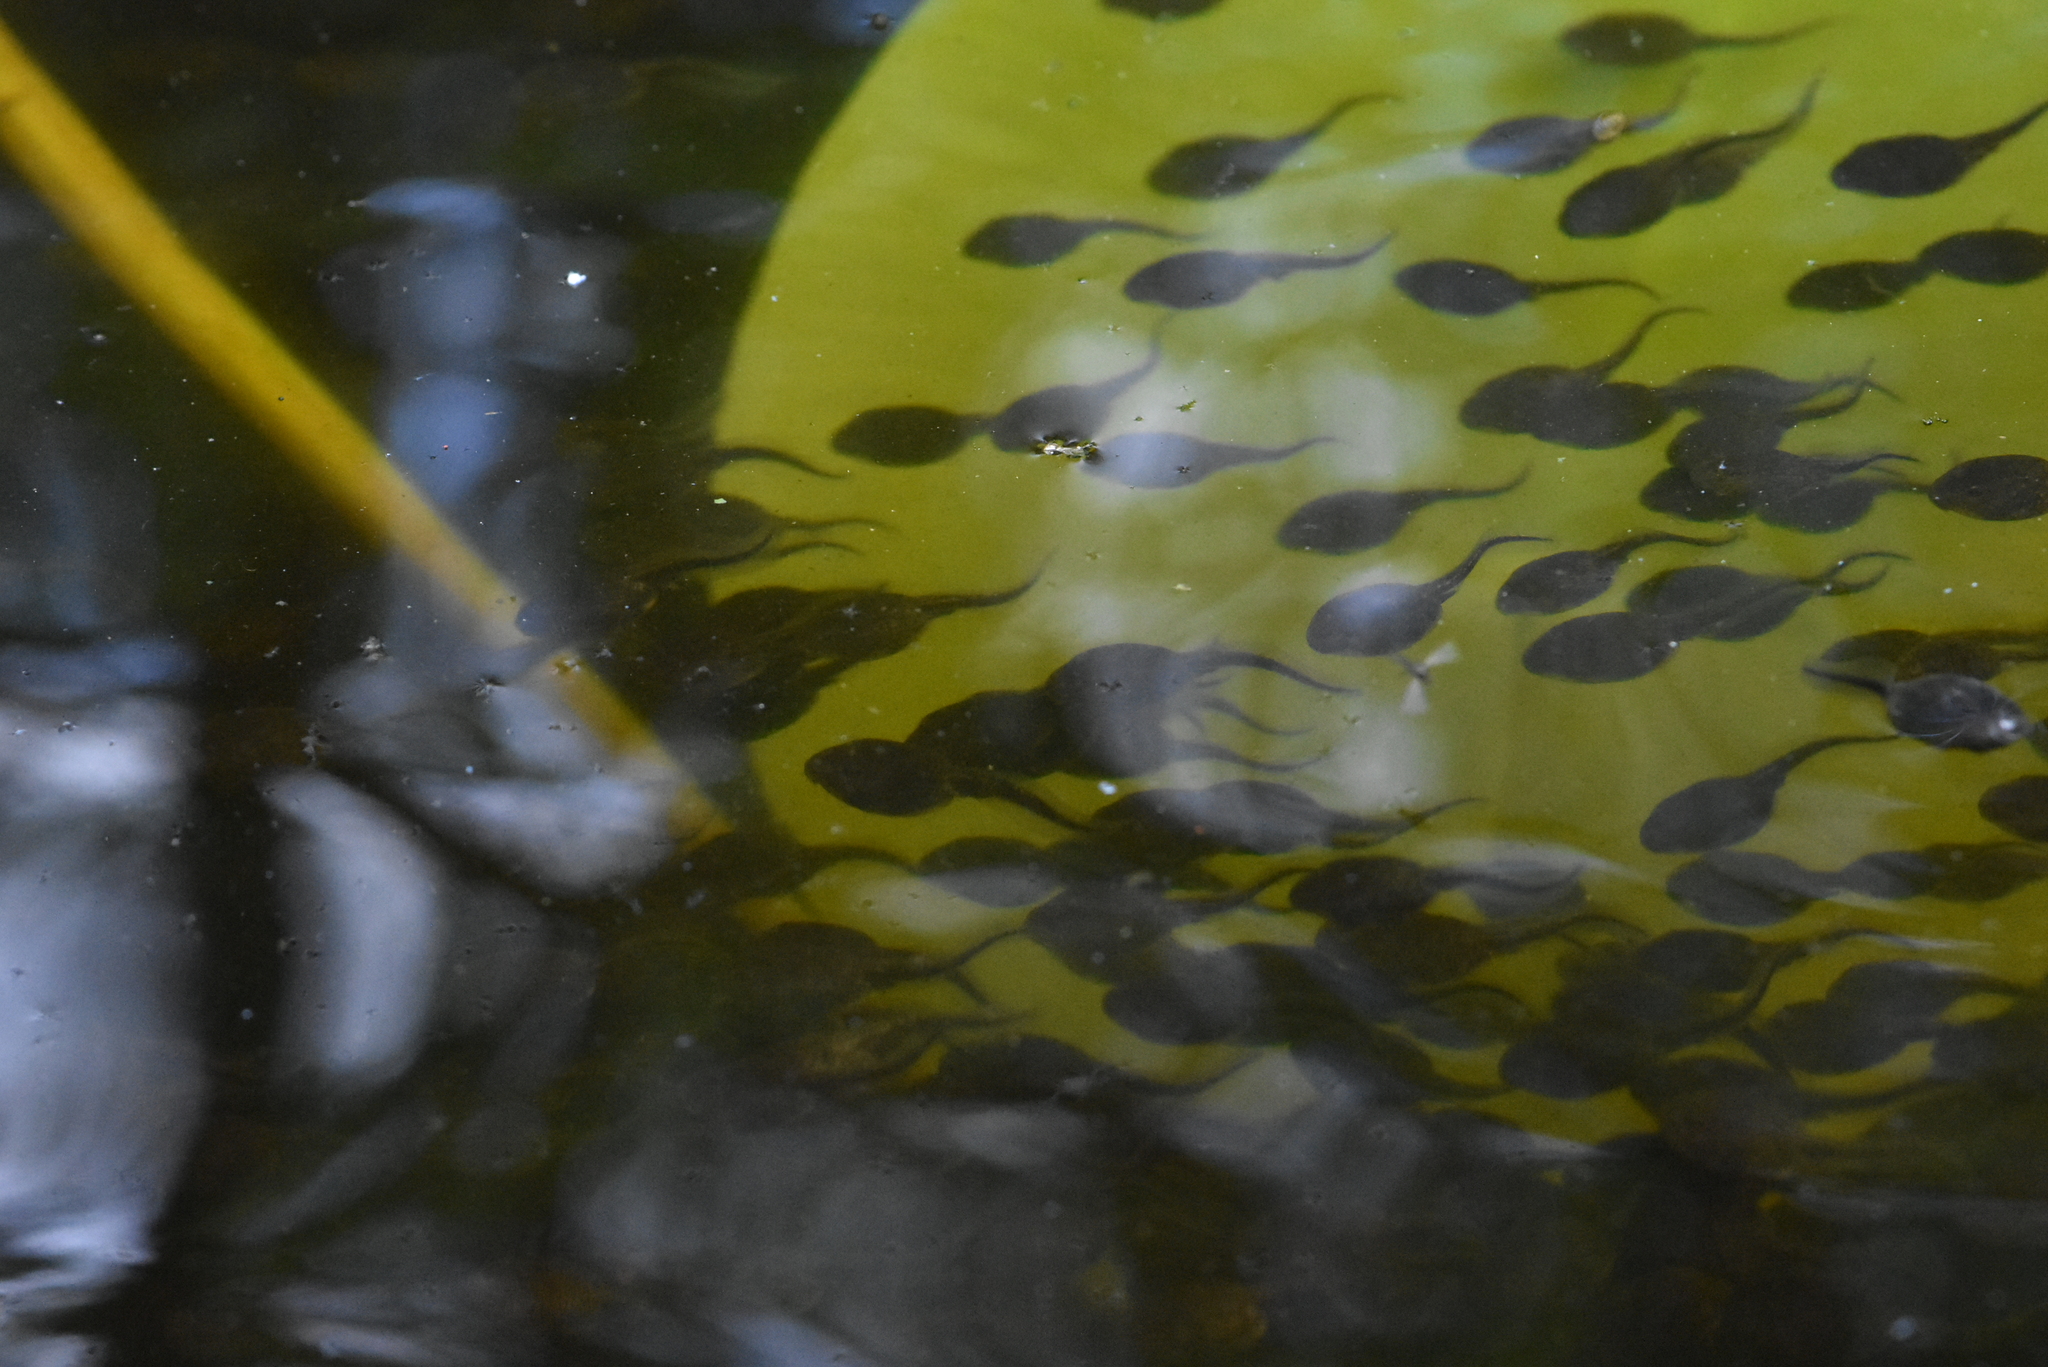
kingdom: Animalia
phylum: Chordata
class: Amphibia
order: Anura
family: Bufonidae
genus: Bufo
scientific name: Bufo bufo
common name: Common toad
